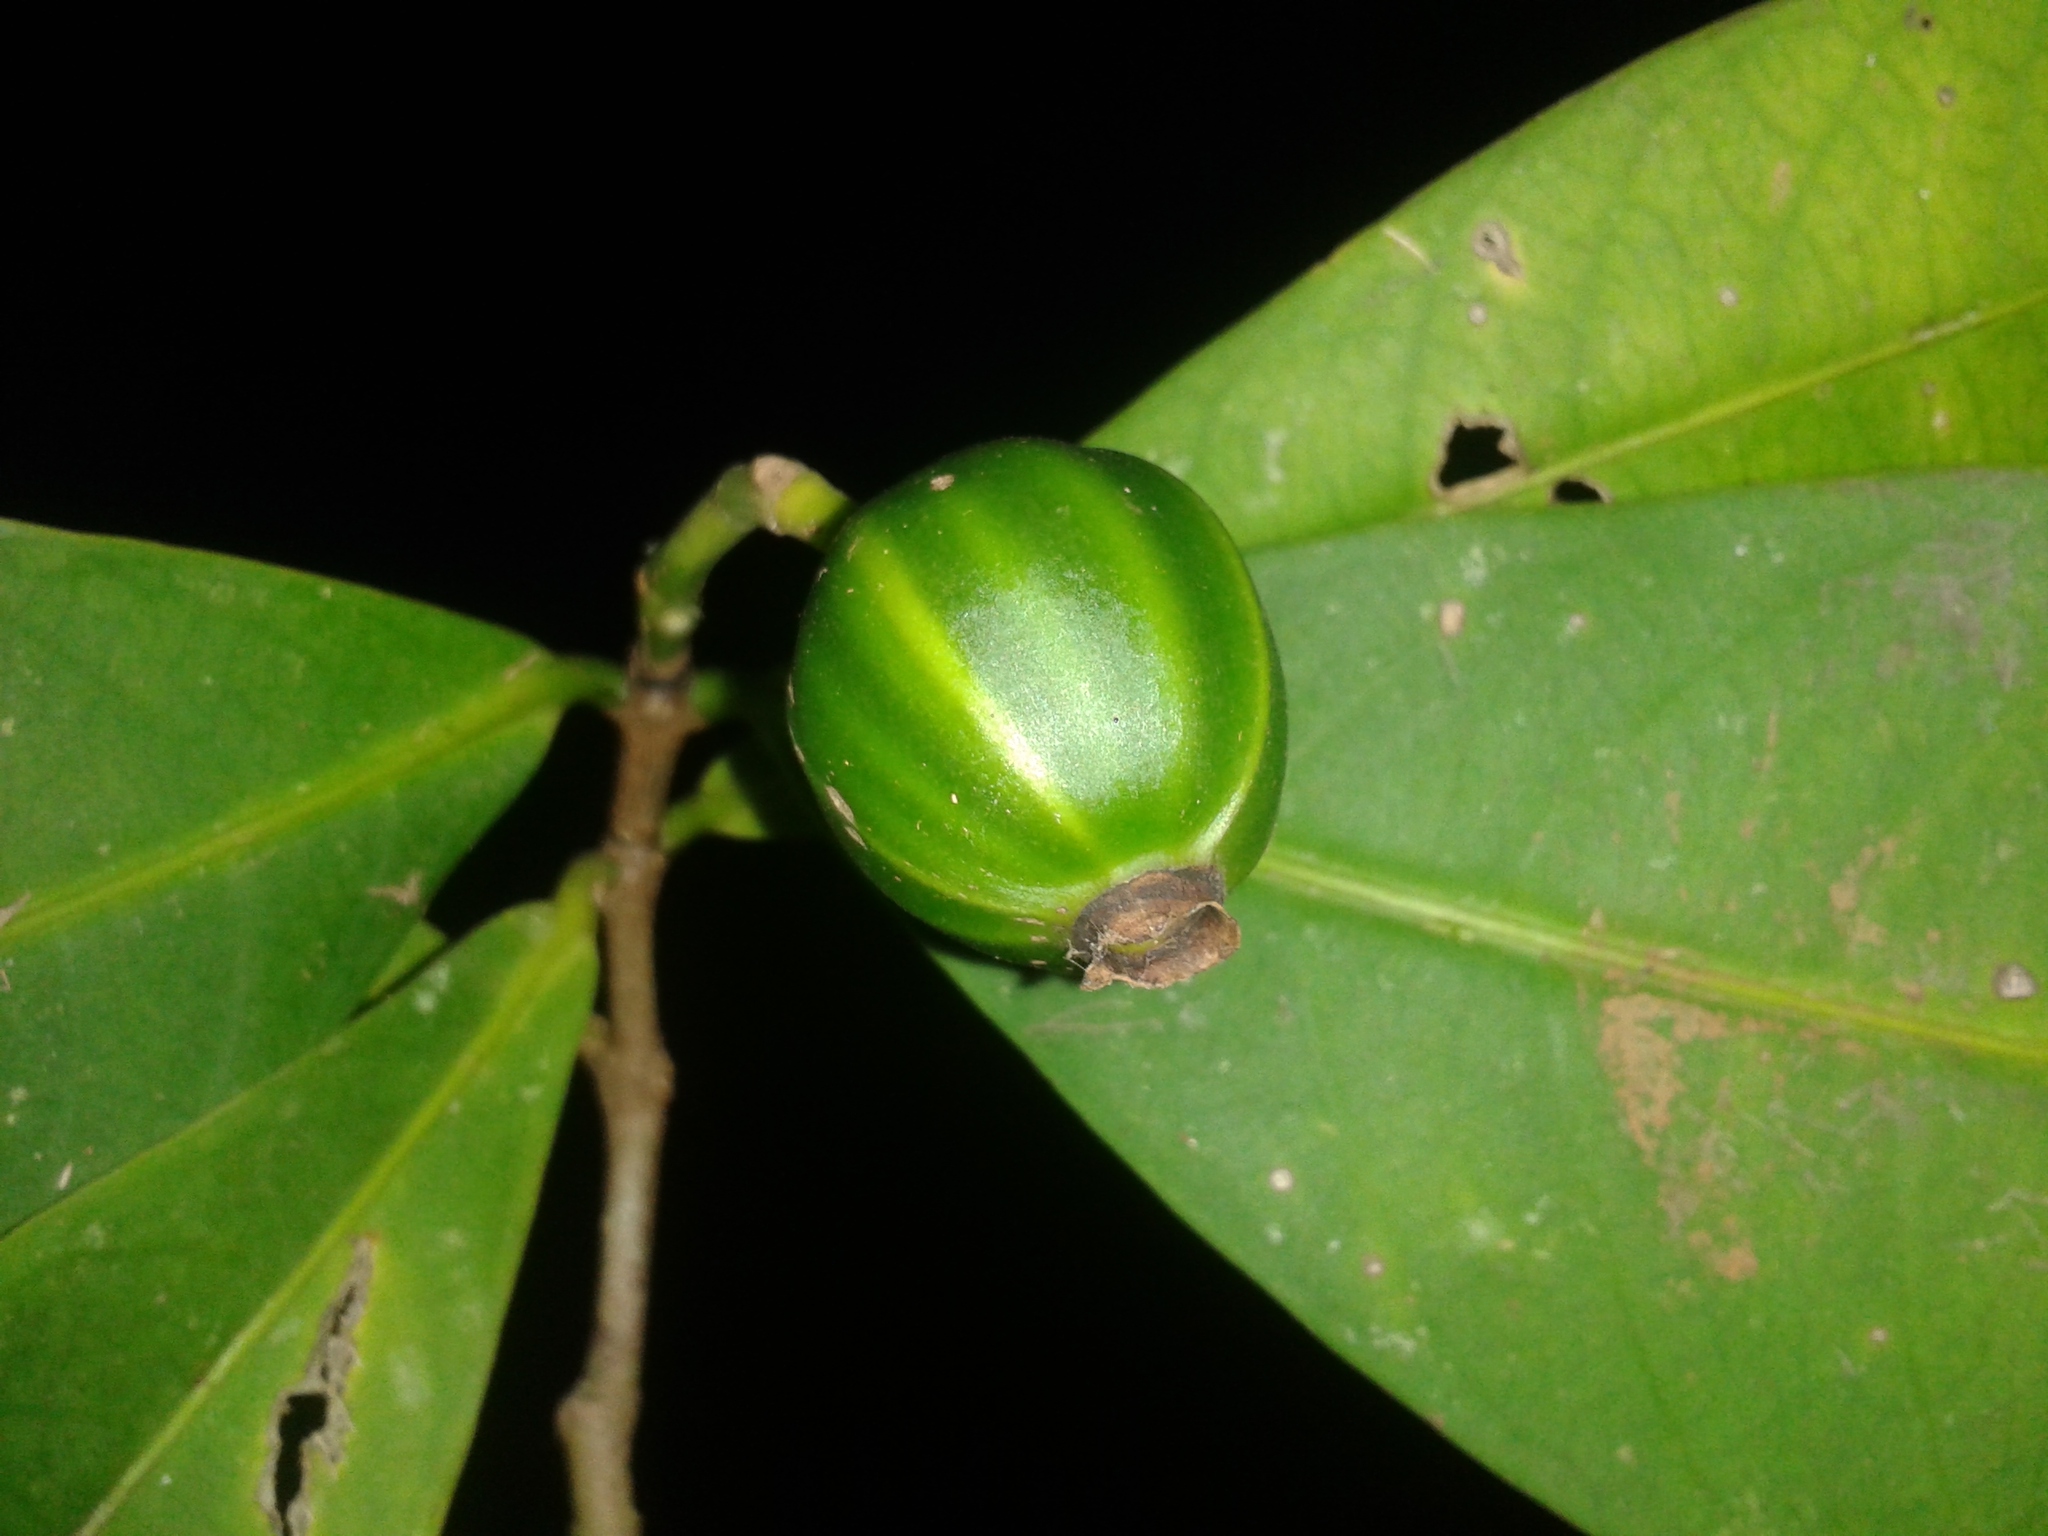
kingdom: Plantae
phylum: Tracheophyta
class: Magnoliopsida
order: Gentianales
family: Rubiaceae
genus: Rudgea
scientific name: Rudgea raveniana
